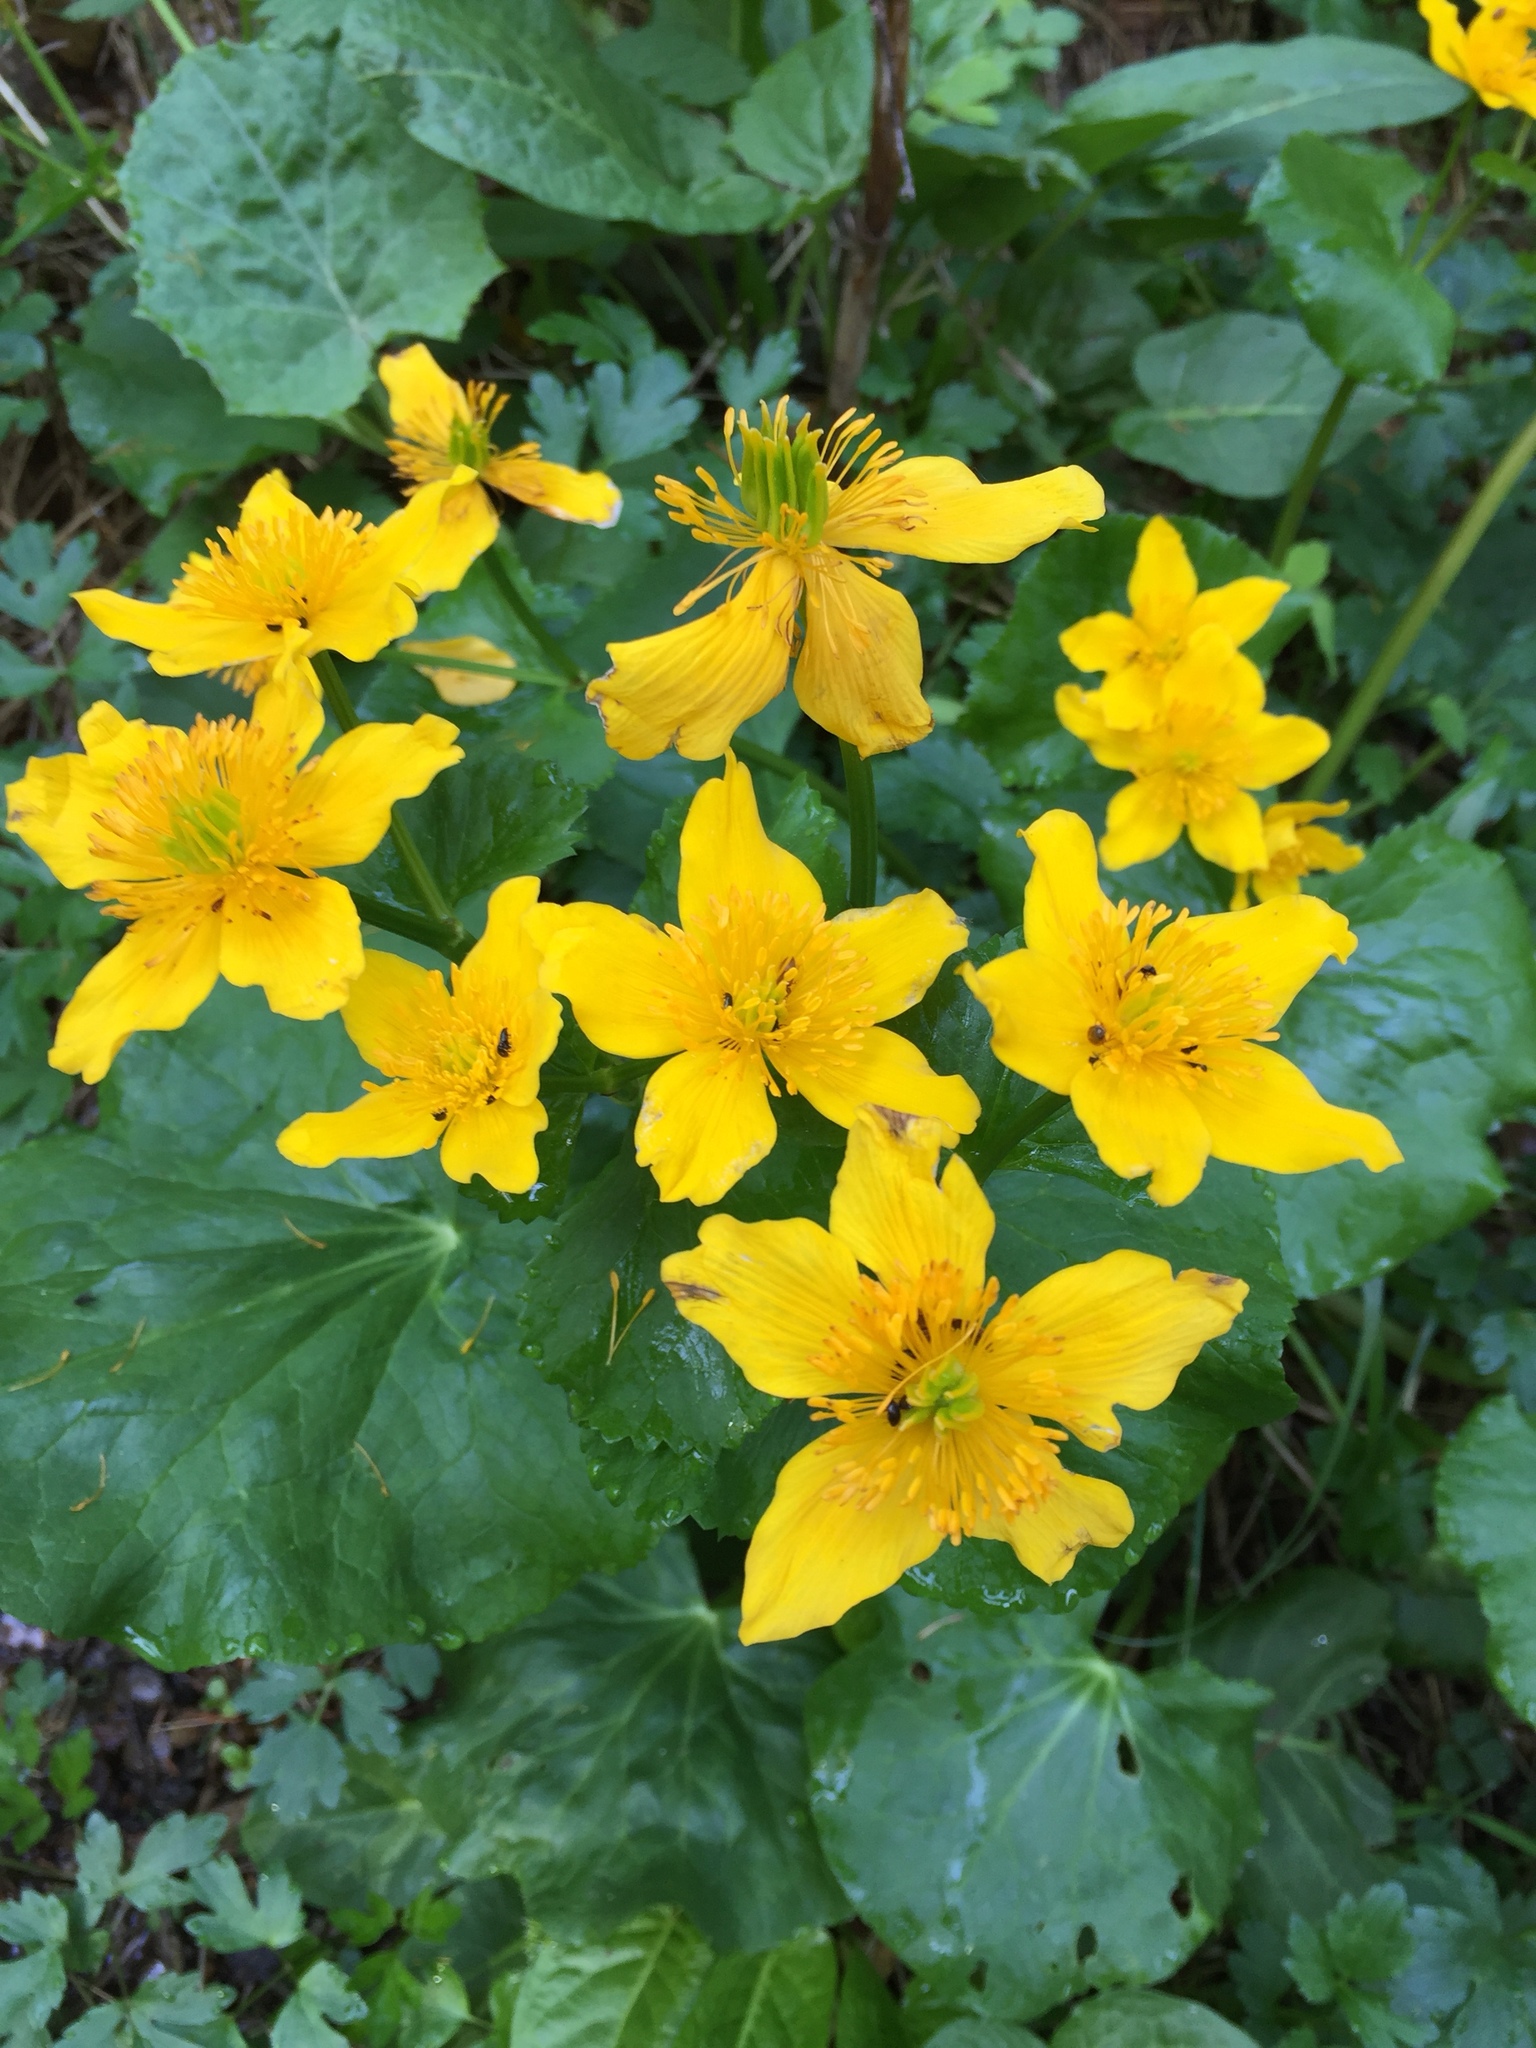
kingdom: Plantae
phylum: Tracheophyta
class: Magnoliopsida
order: Ranunculales
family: Ranunculaceae
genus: Caltha
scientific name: Caltha palustris
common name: Marsh marigold
